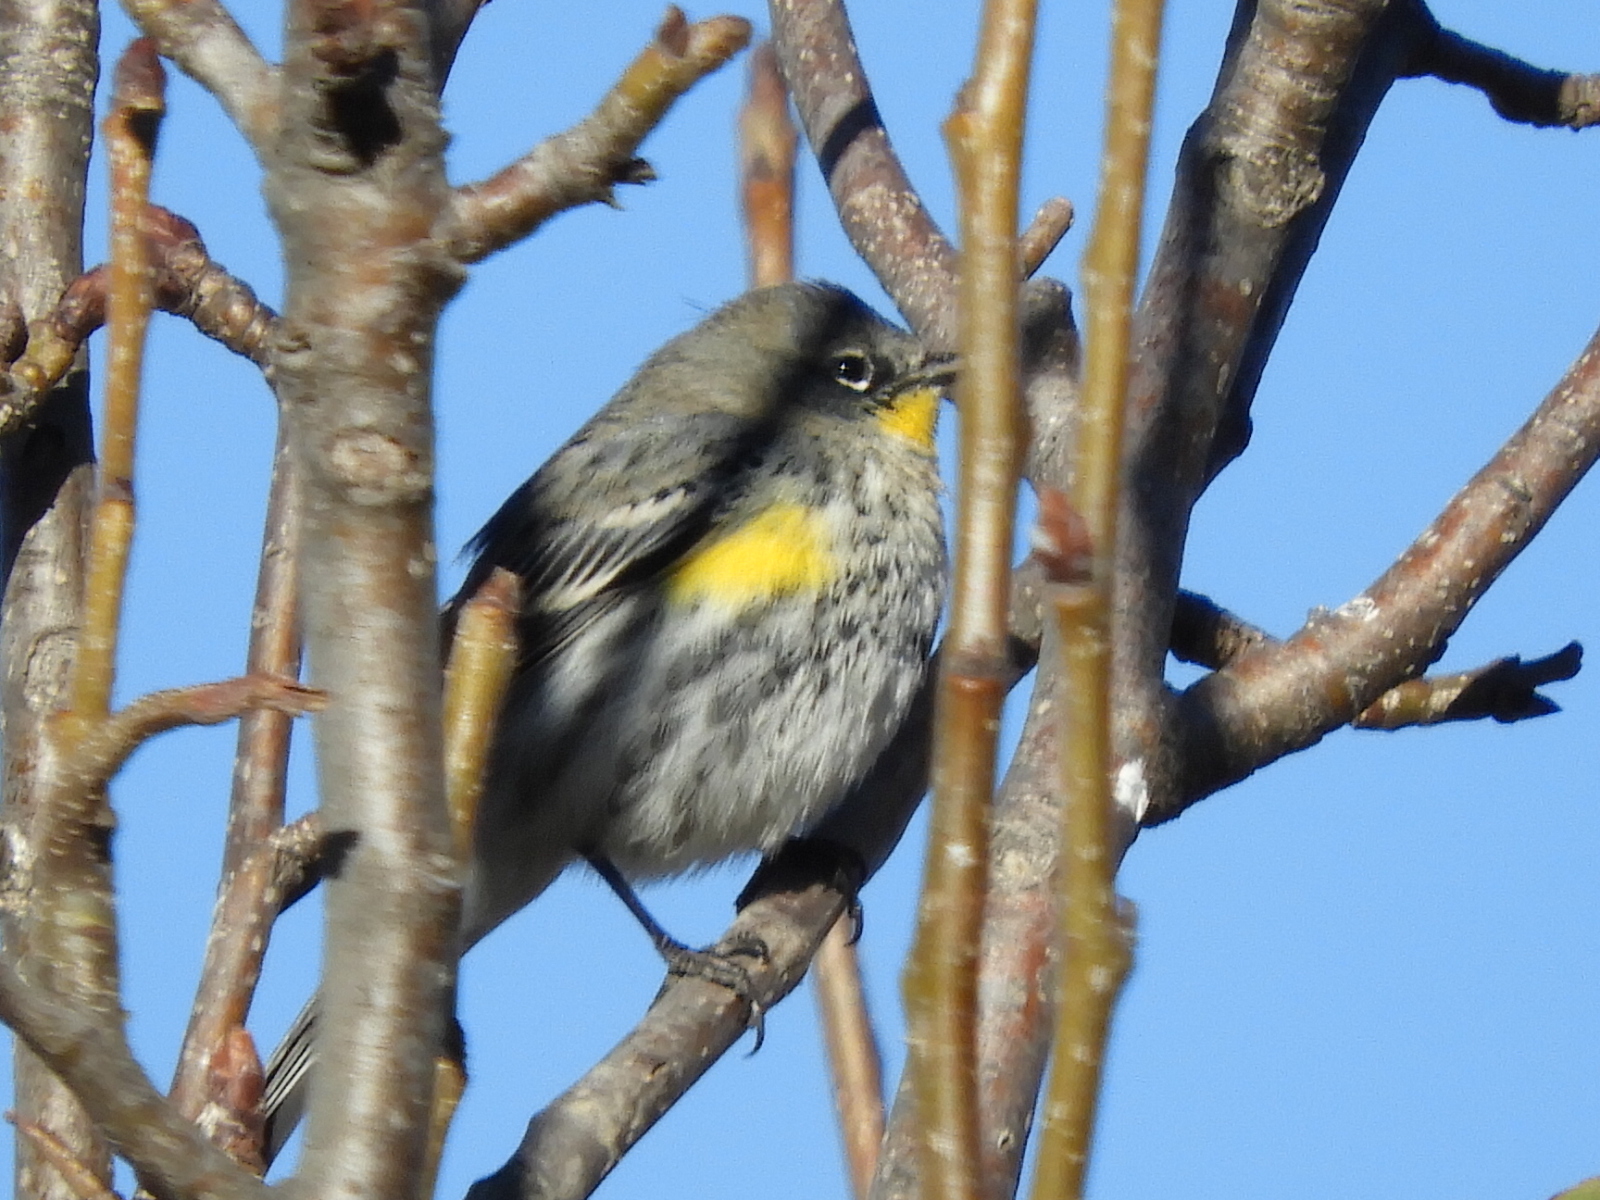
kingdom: Animalia
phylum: Chordata
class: Aves
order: Passeriformes
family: Parulidae
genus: Setophaga
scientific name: Setophaga auduboni
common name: Audubon's warbler
